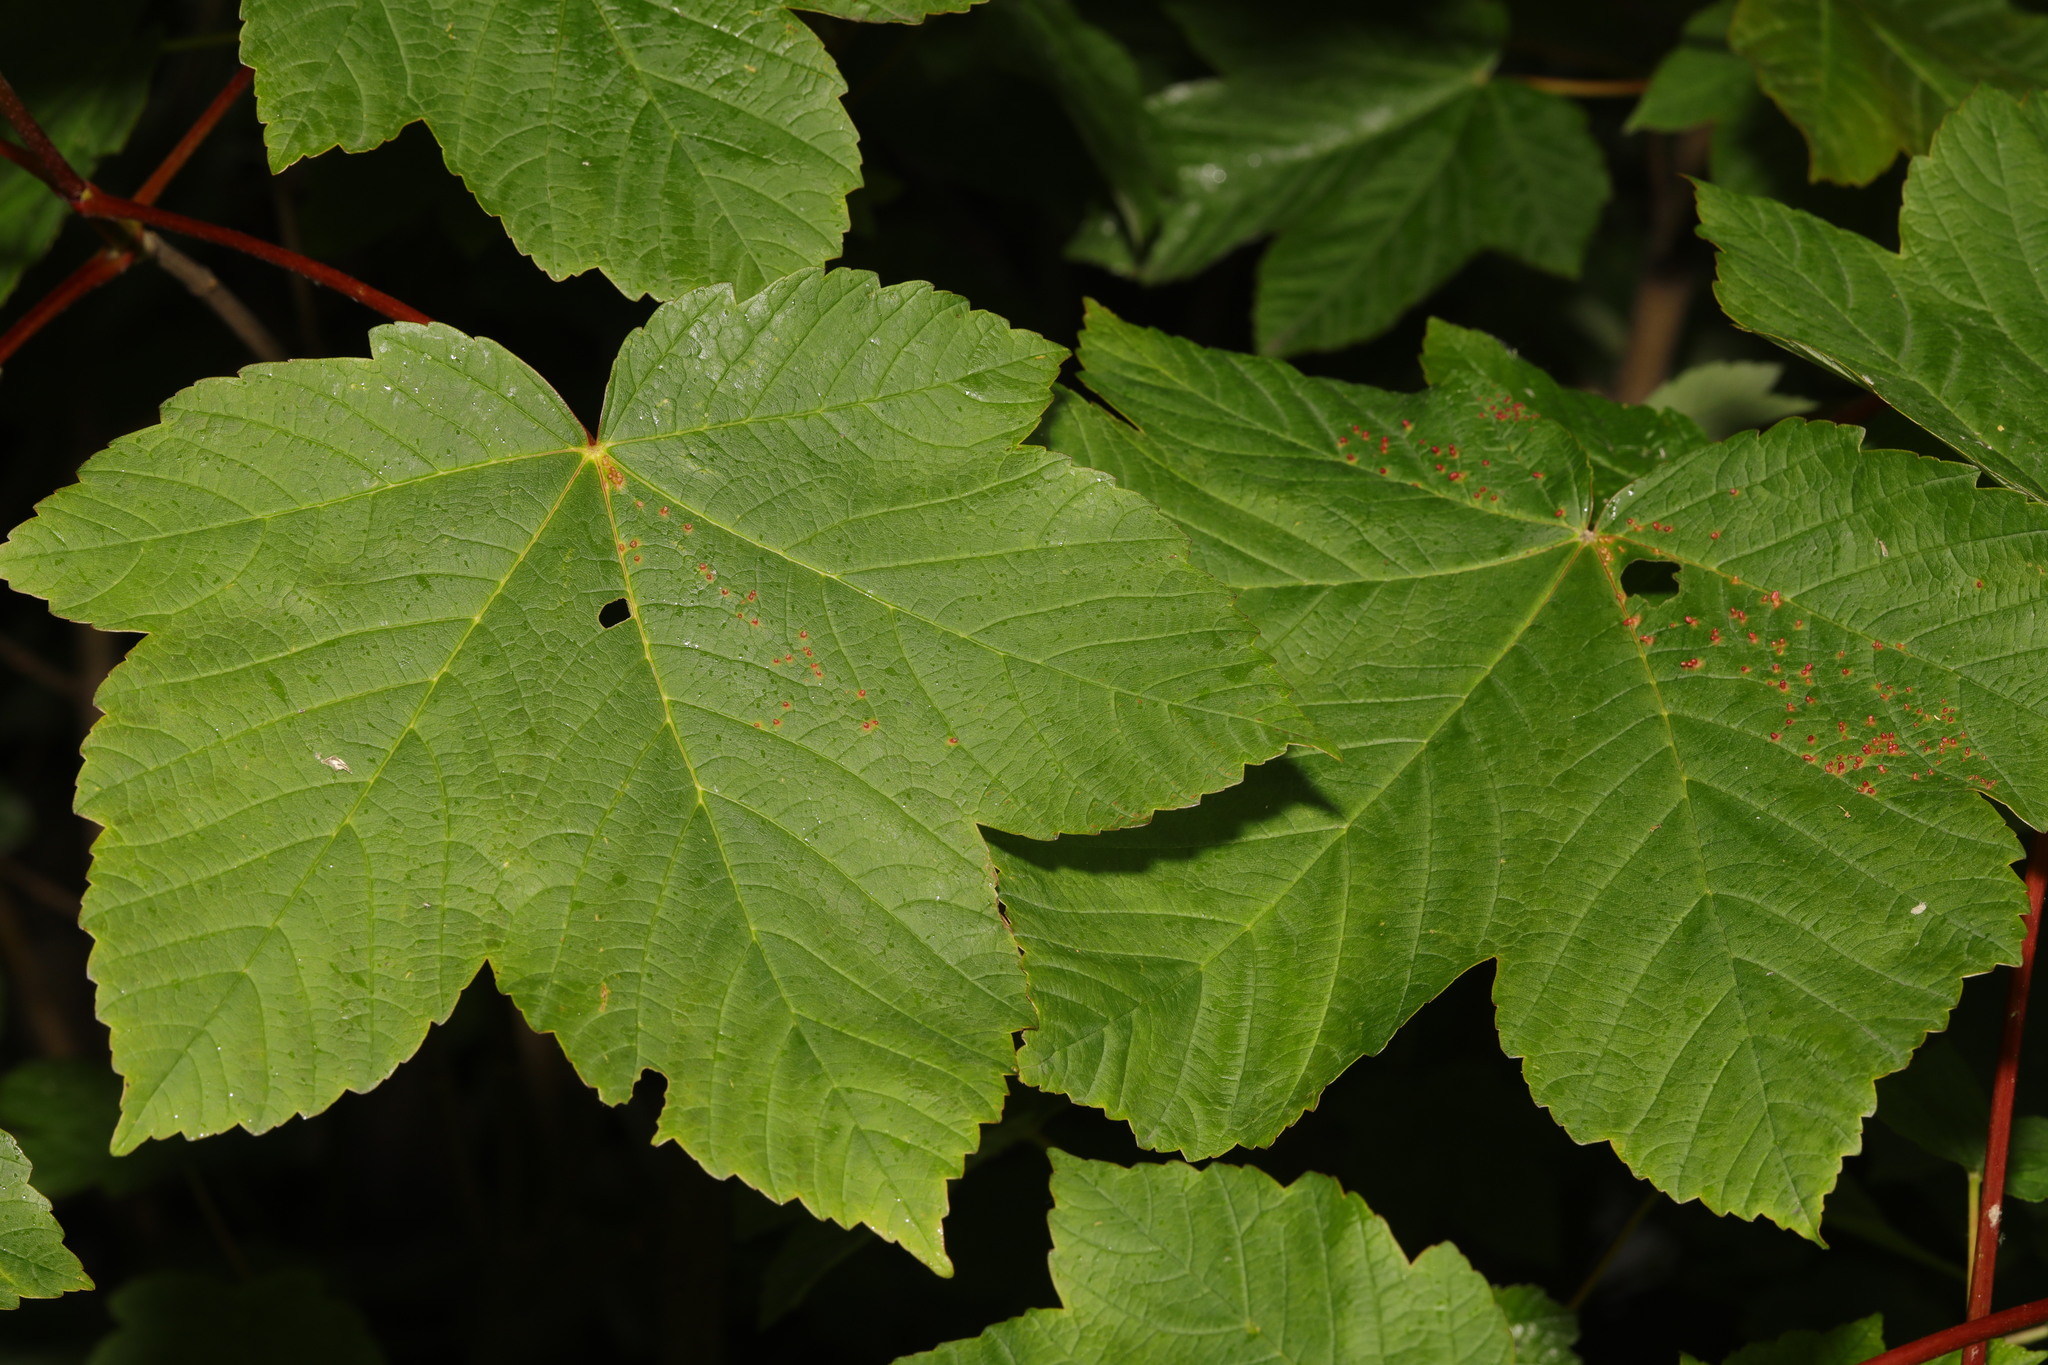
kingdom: Plantae
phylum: Tracheophyta
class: Magnoliopsida
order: Sapindales
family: Sapindaceae
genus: Acer
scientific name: Acer pseudoplatanus
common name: Sycamore
